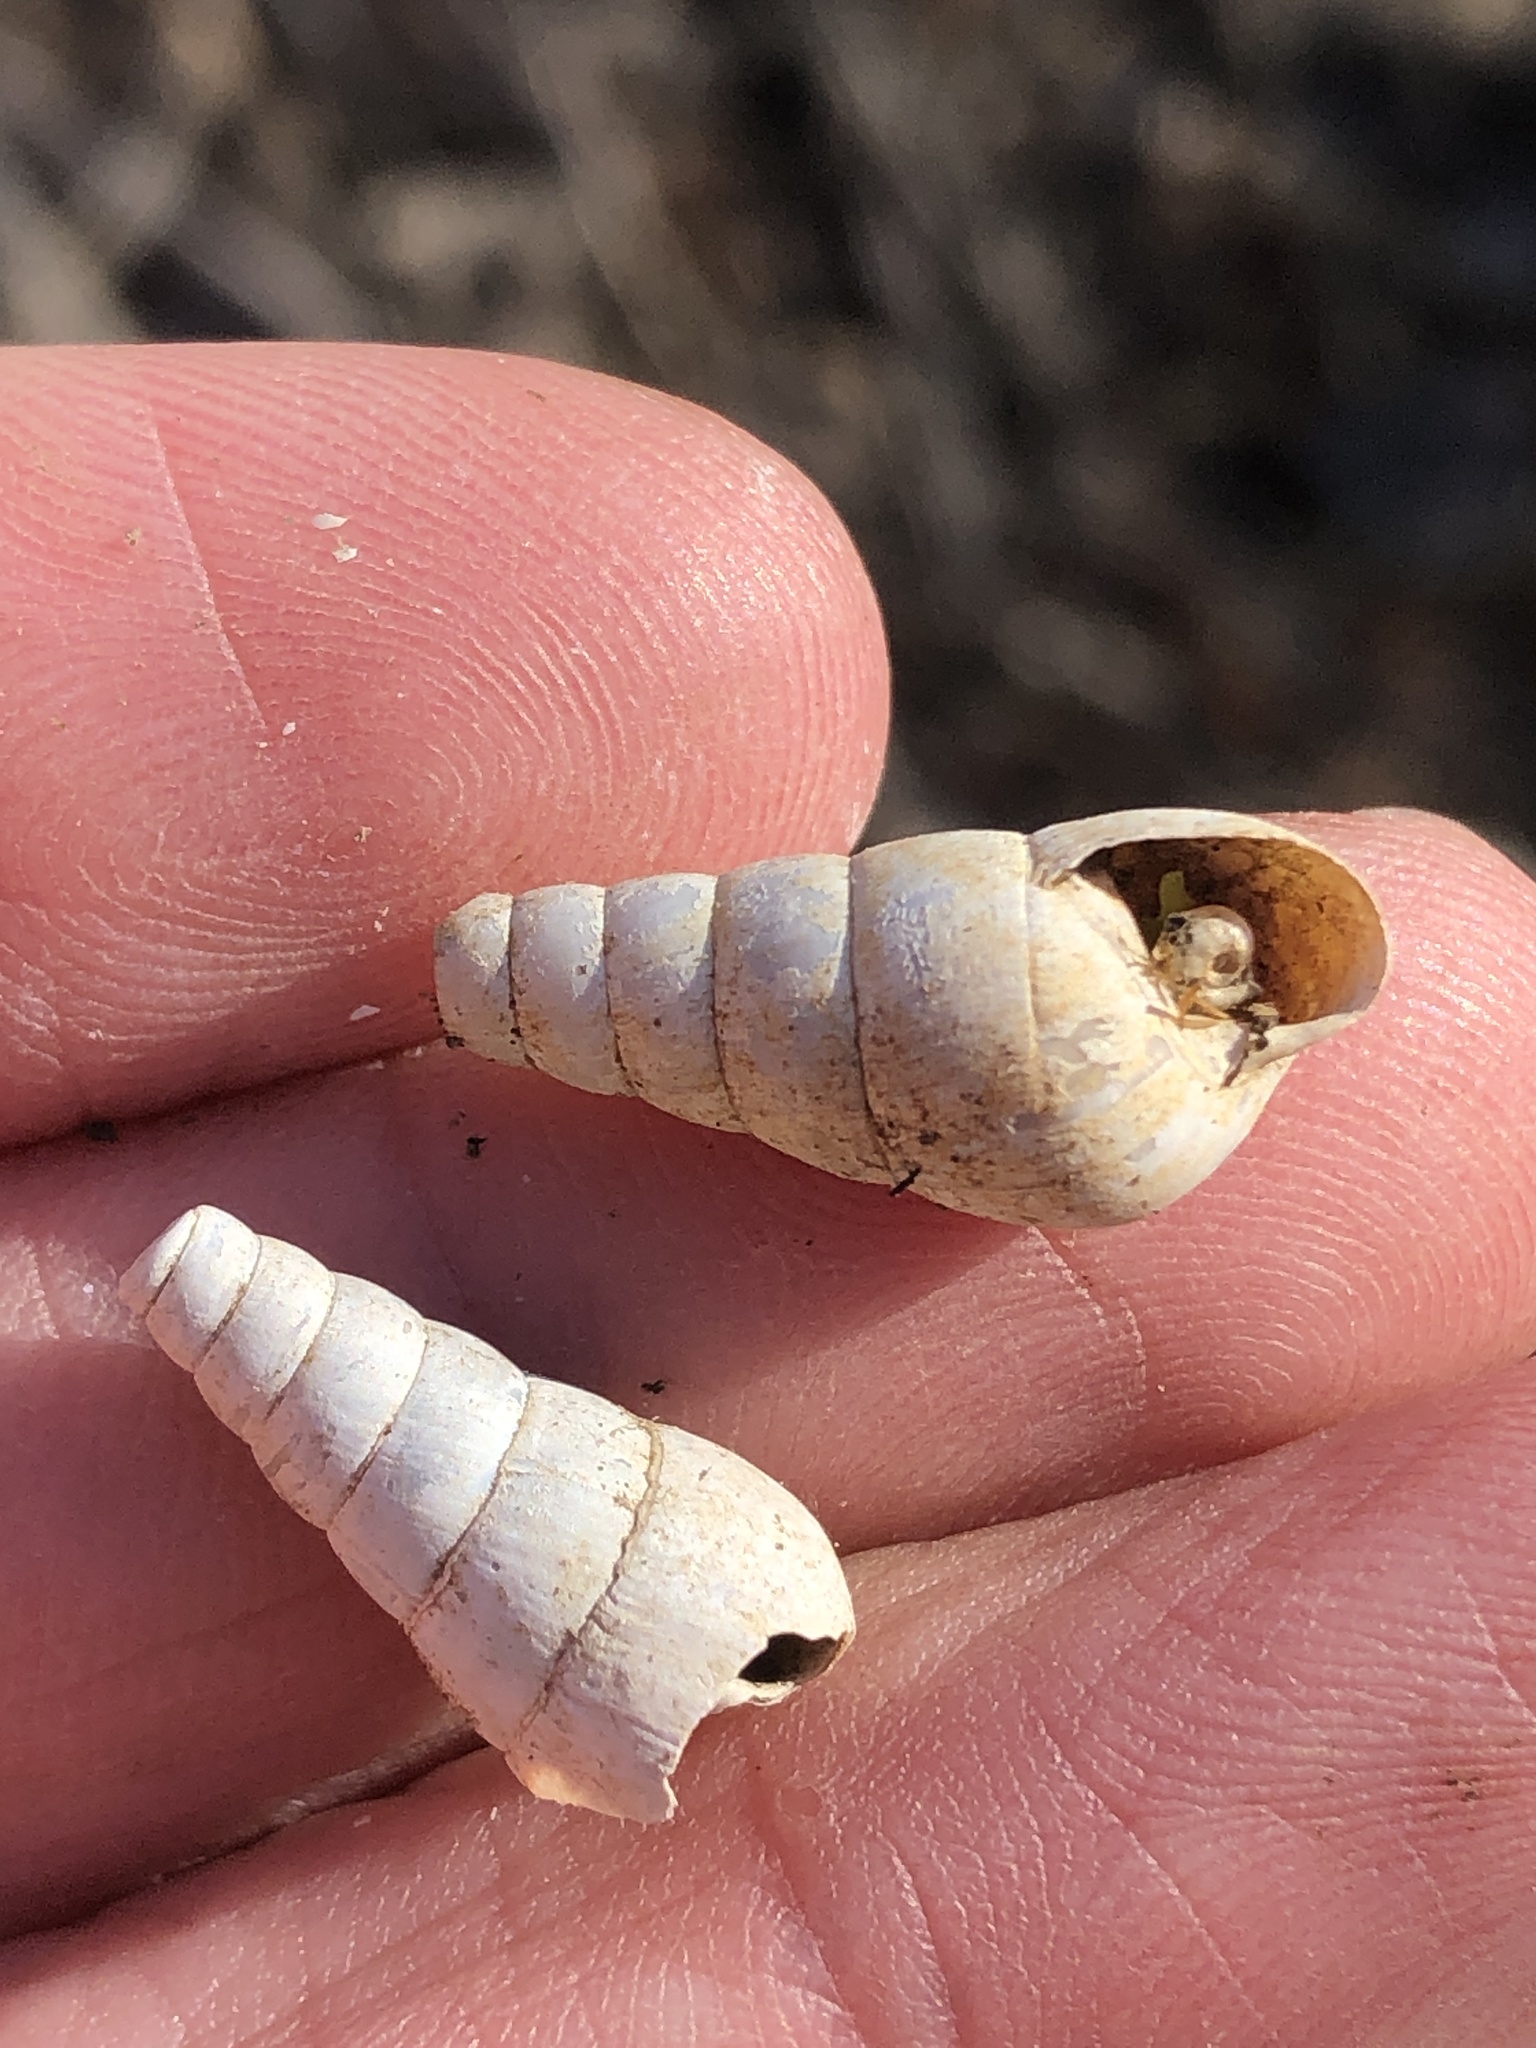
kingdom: Animalia
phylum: Mollusca
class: Gastropoda
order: Stylommatophora
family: Achatinidae
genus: Rumina
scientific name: Rumina decollata
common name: Decollate snail
